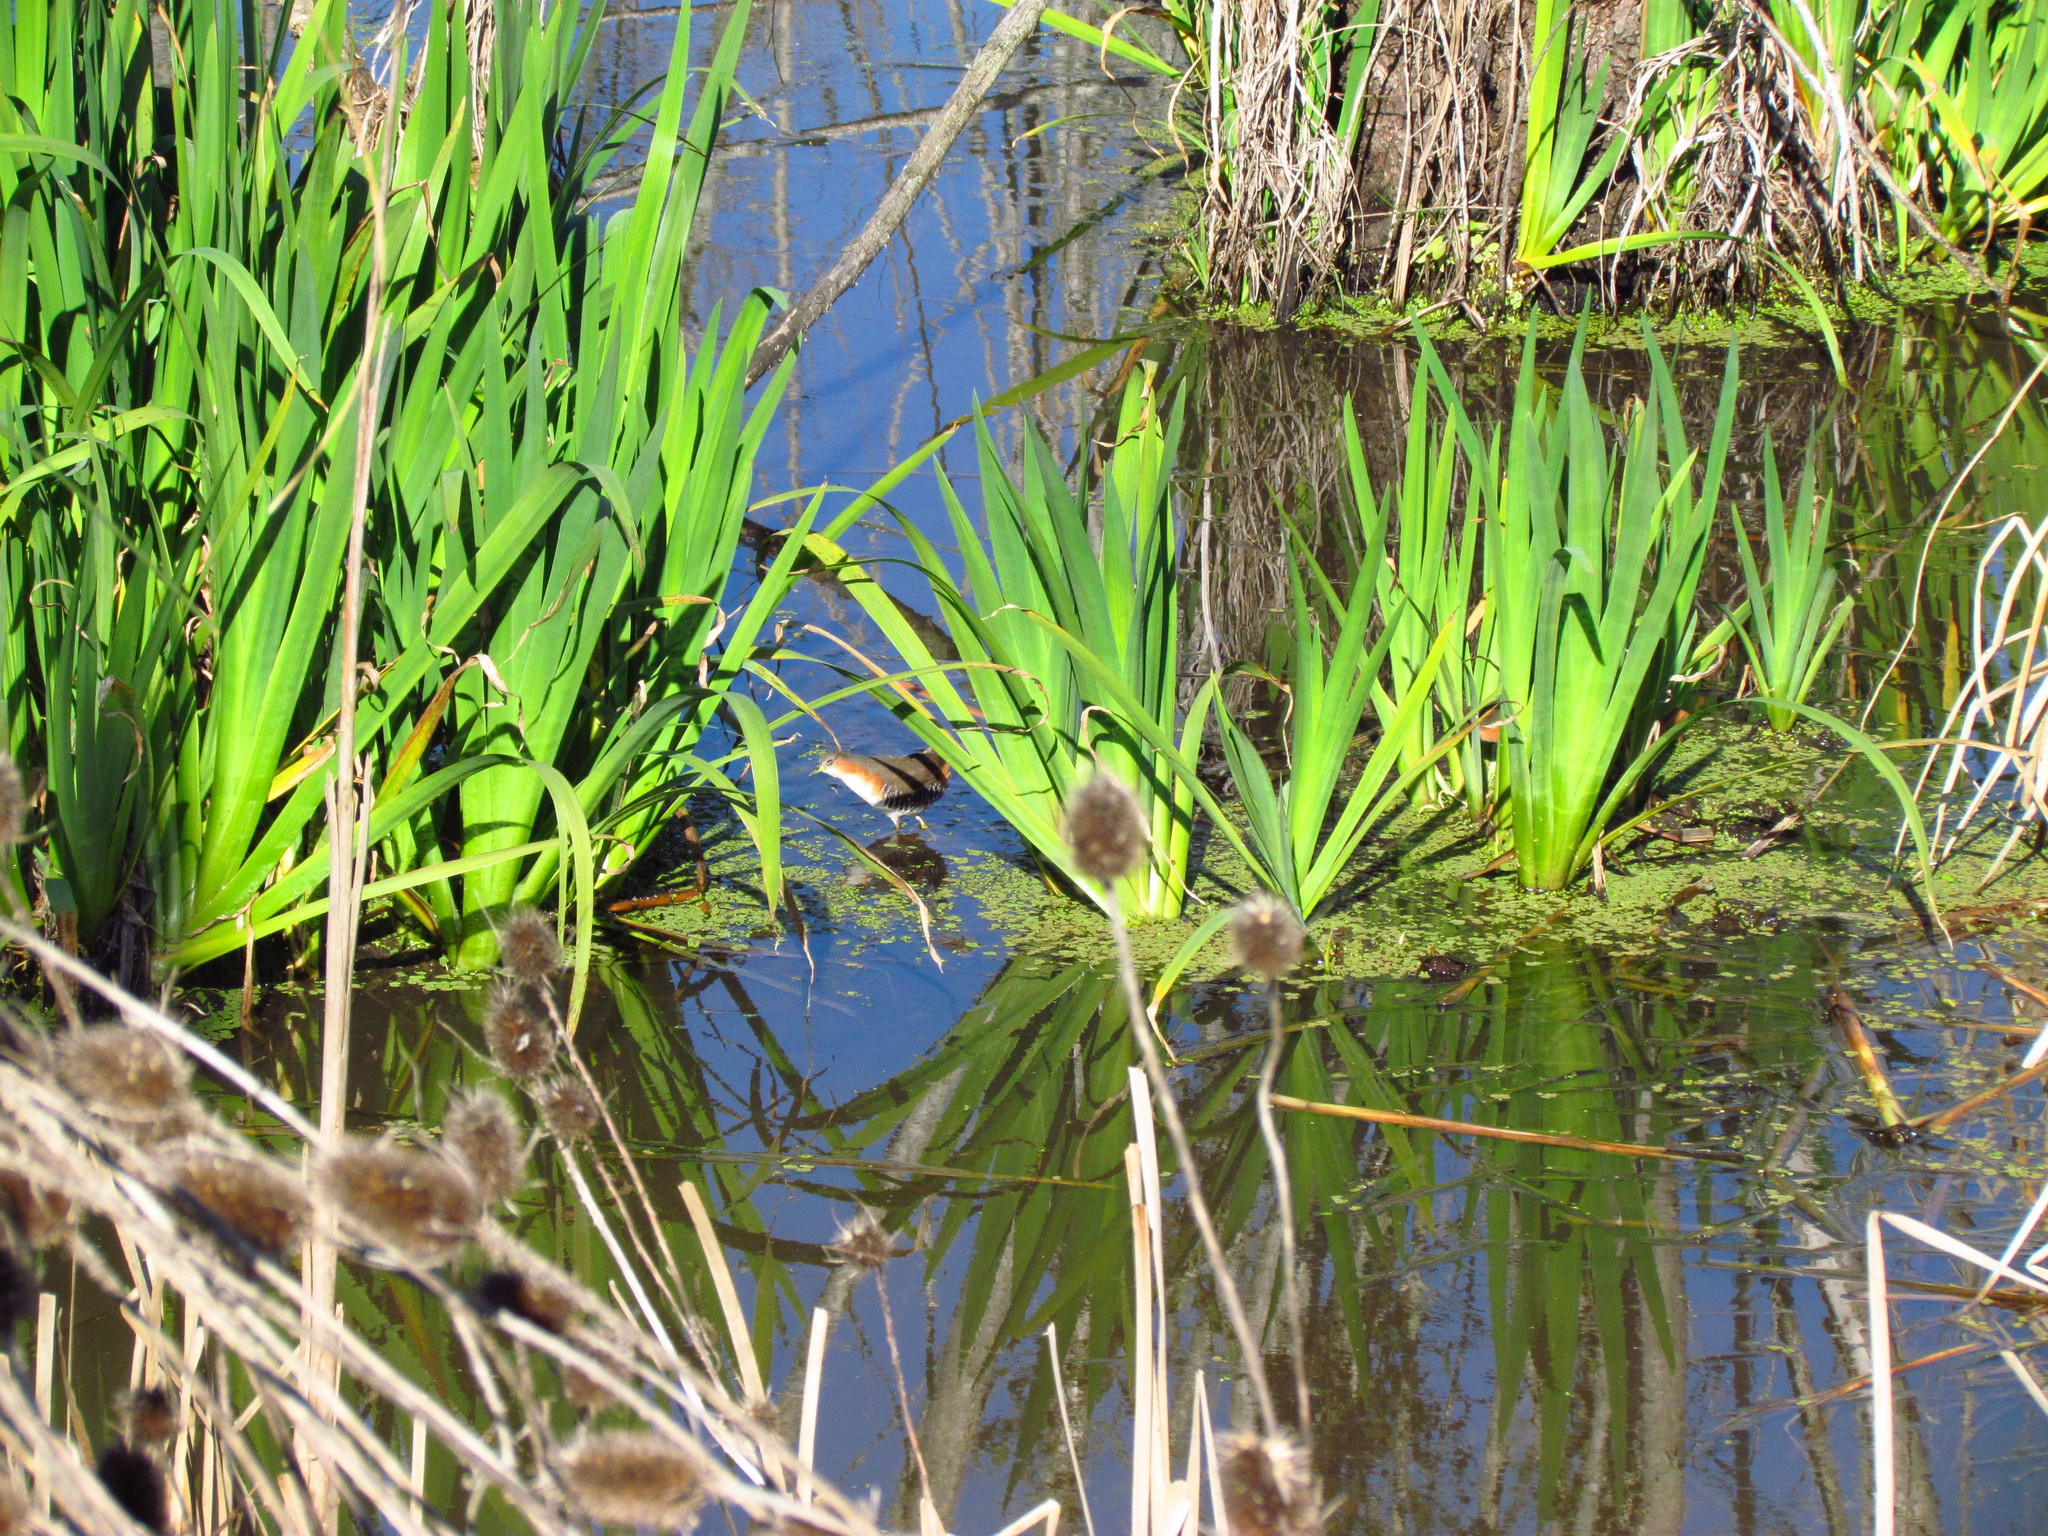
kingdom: Animalia
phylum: Chordata
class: Aves
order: Gruiformes
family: Rallidae
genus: Laterallus
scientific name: Laterallus melanophaius
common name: Rufous-sided crake
